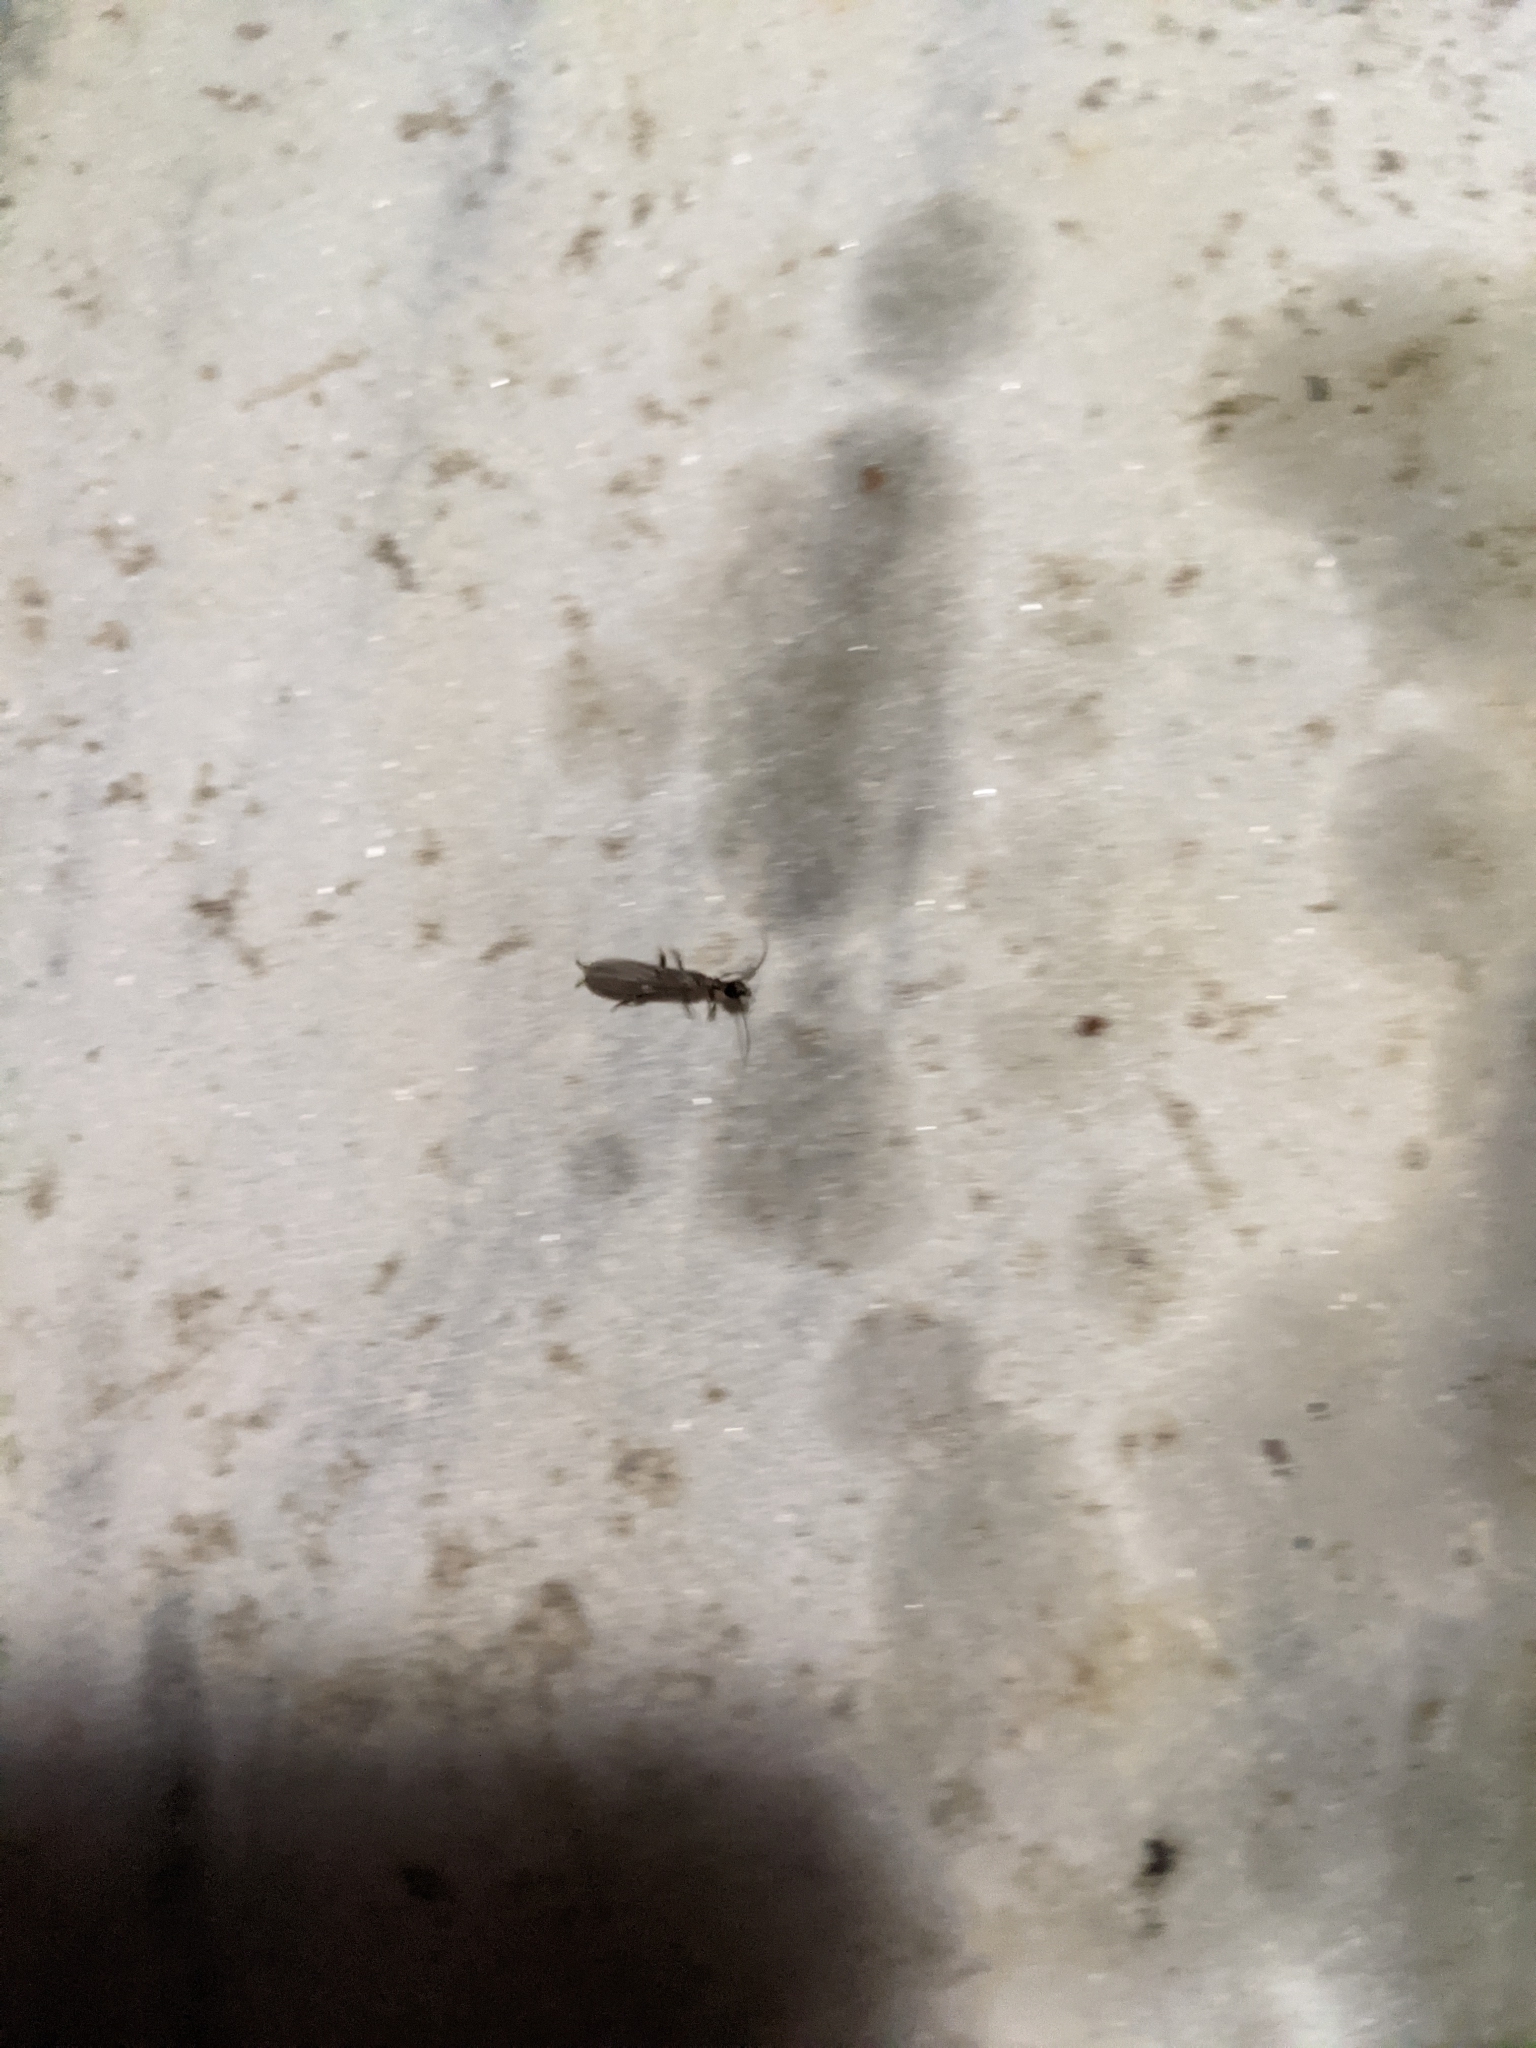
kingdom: Animalia
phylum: Arthropoda
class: Insecta
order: Embioptera
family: Oligotomidae
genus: Oligotoma
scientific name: Oligotoma nigra
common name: Black webspinner
